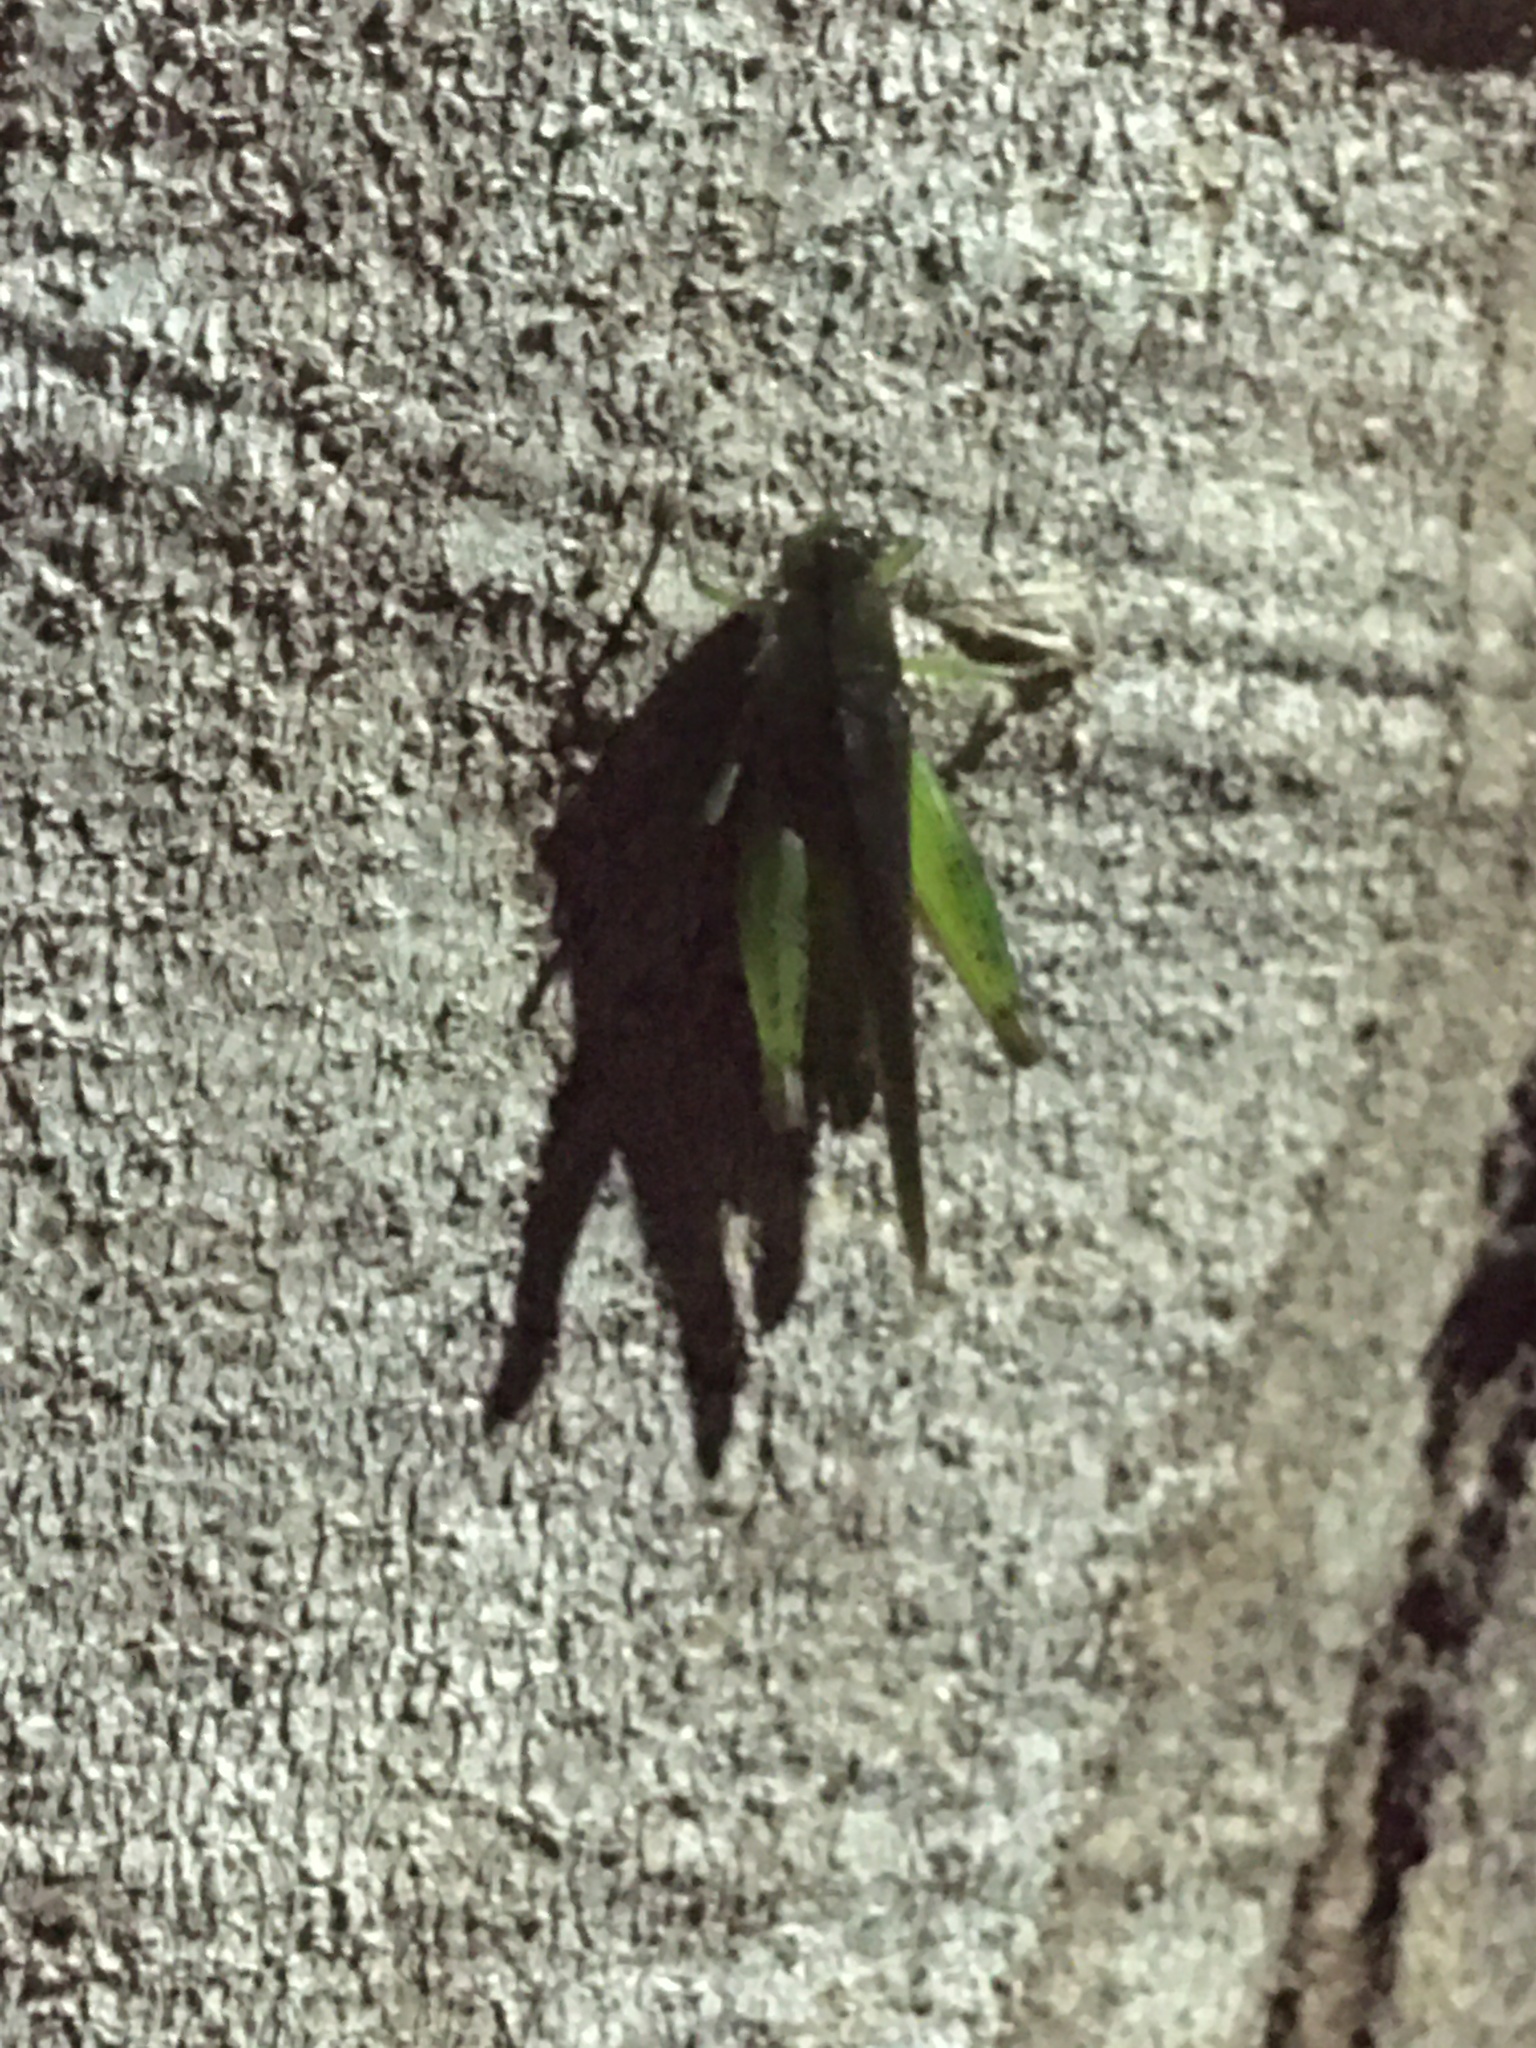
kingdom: Animalia
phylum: Arthropoda
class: Insecta
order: Orthoptera
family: Acrididae
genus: Marellia
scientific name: Marellia remipes
